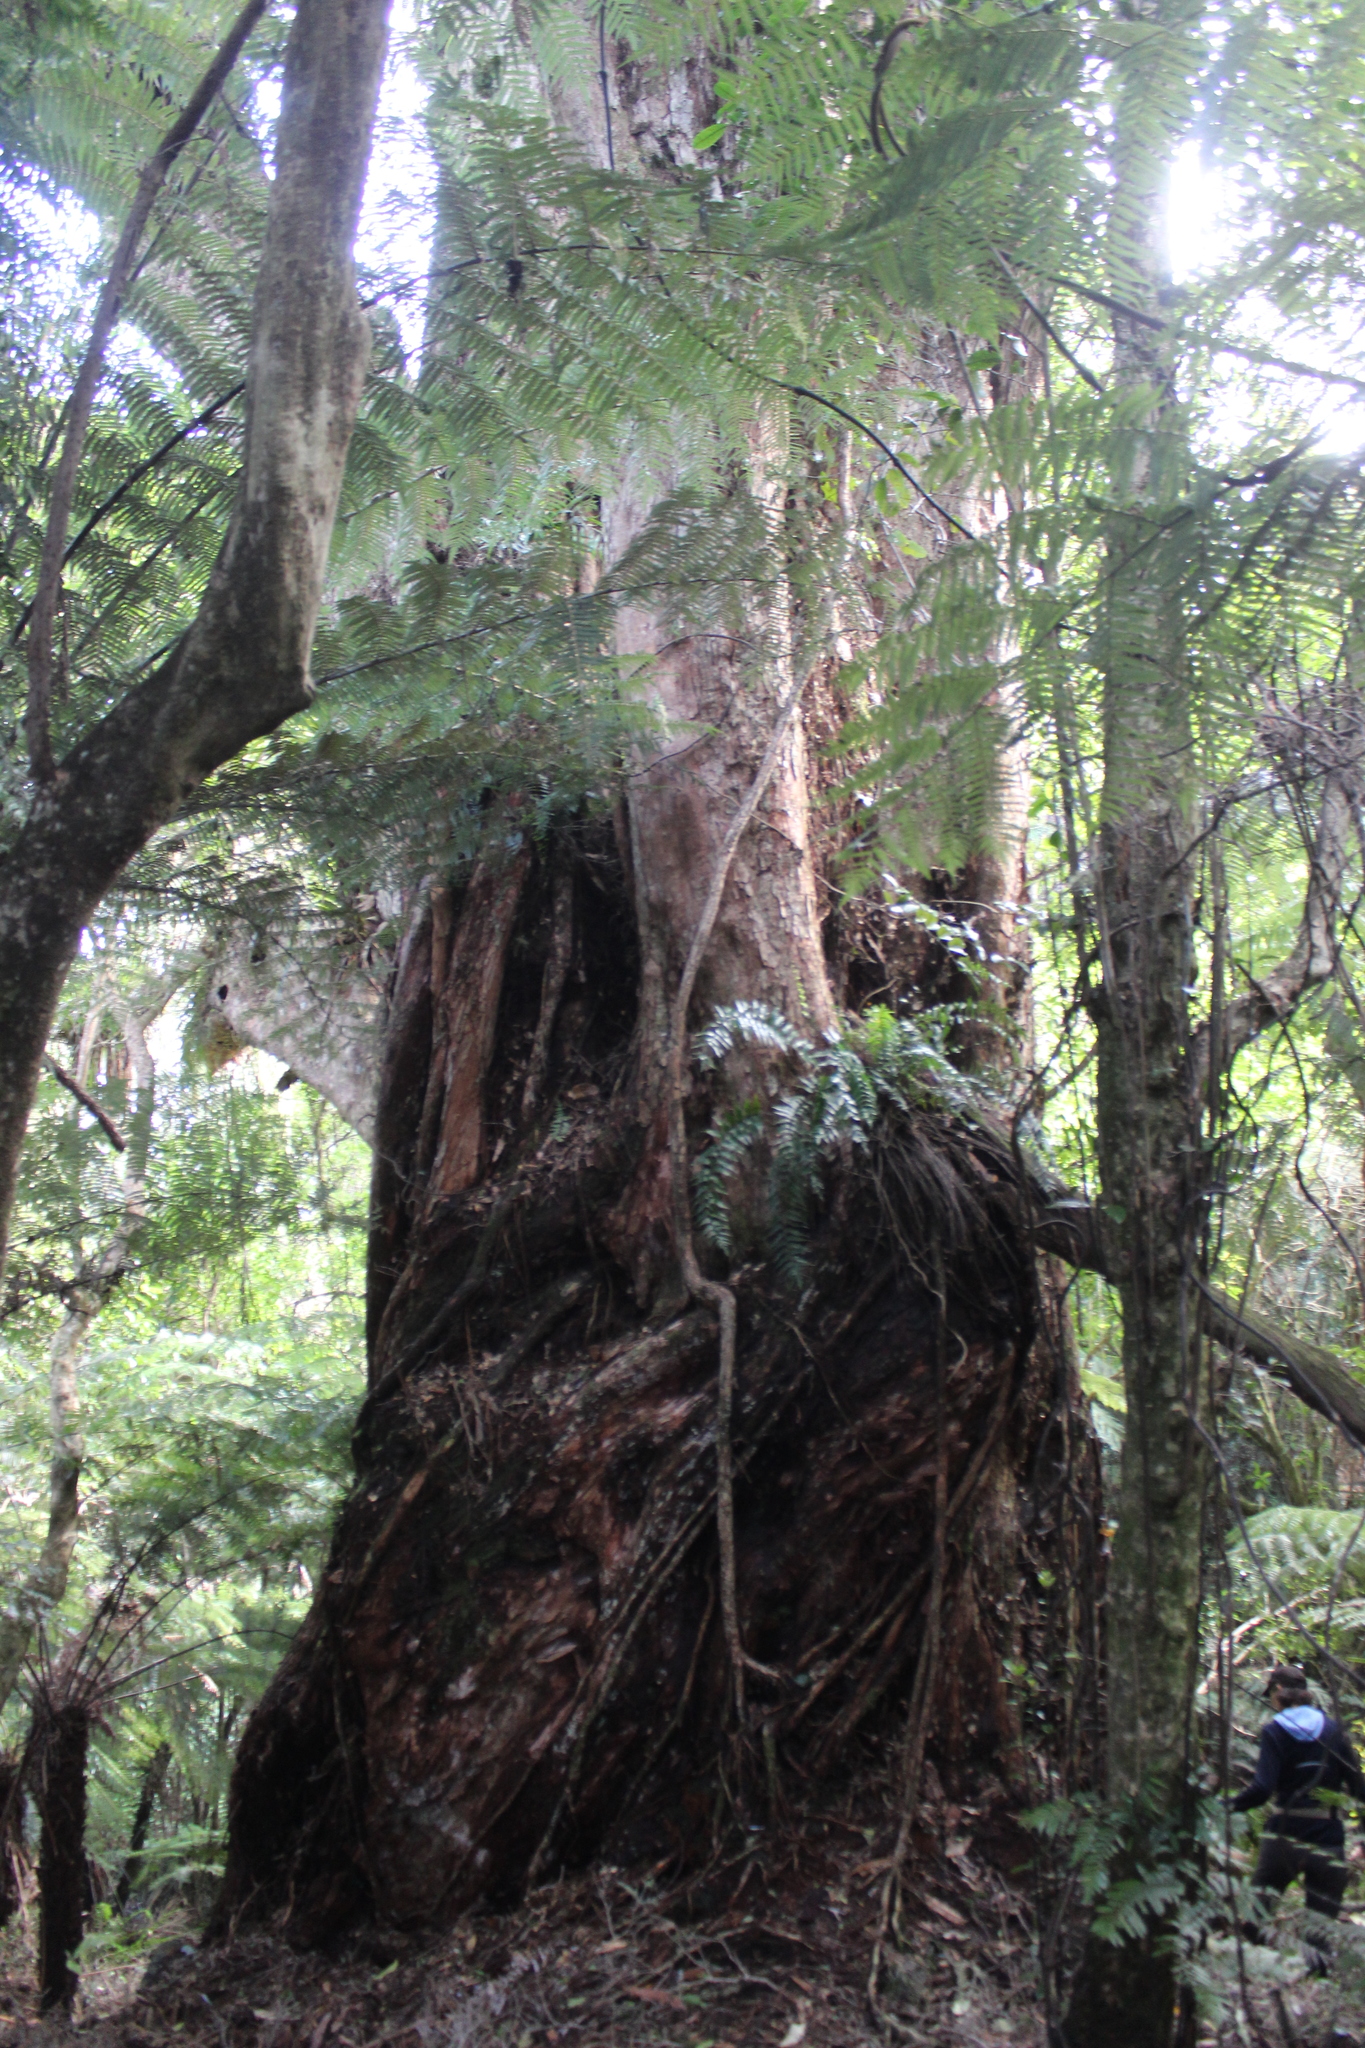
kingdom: Plantae
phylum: Tracheophyta
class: Magnoliopsida
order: Myrtales
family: Myrtaceae
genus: Metrosideros
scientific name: Metrosideros robusta
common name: Northern rata
